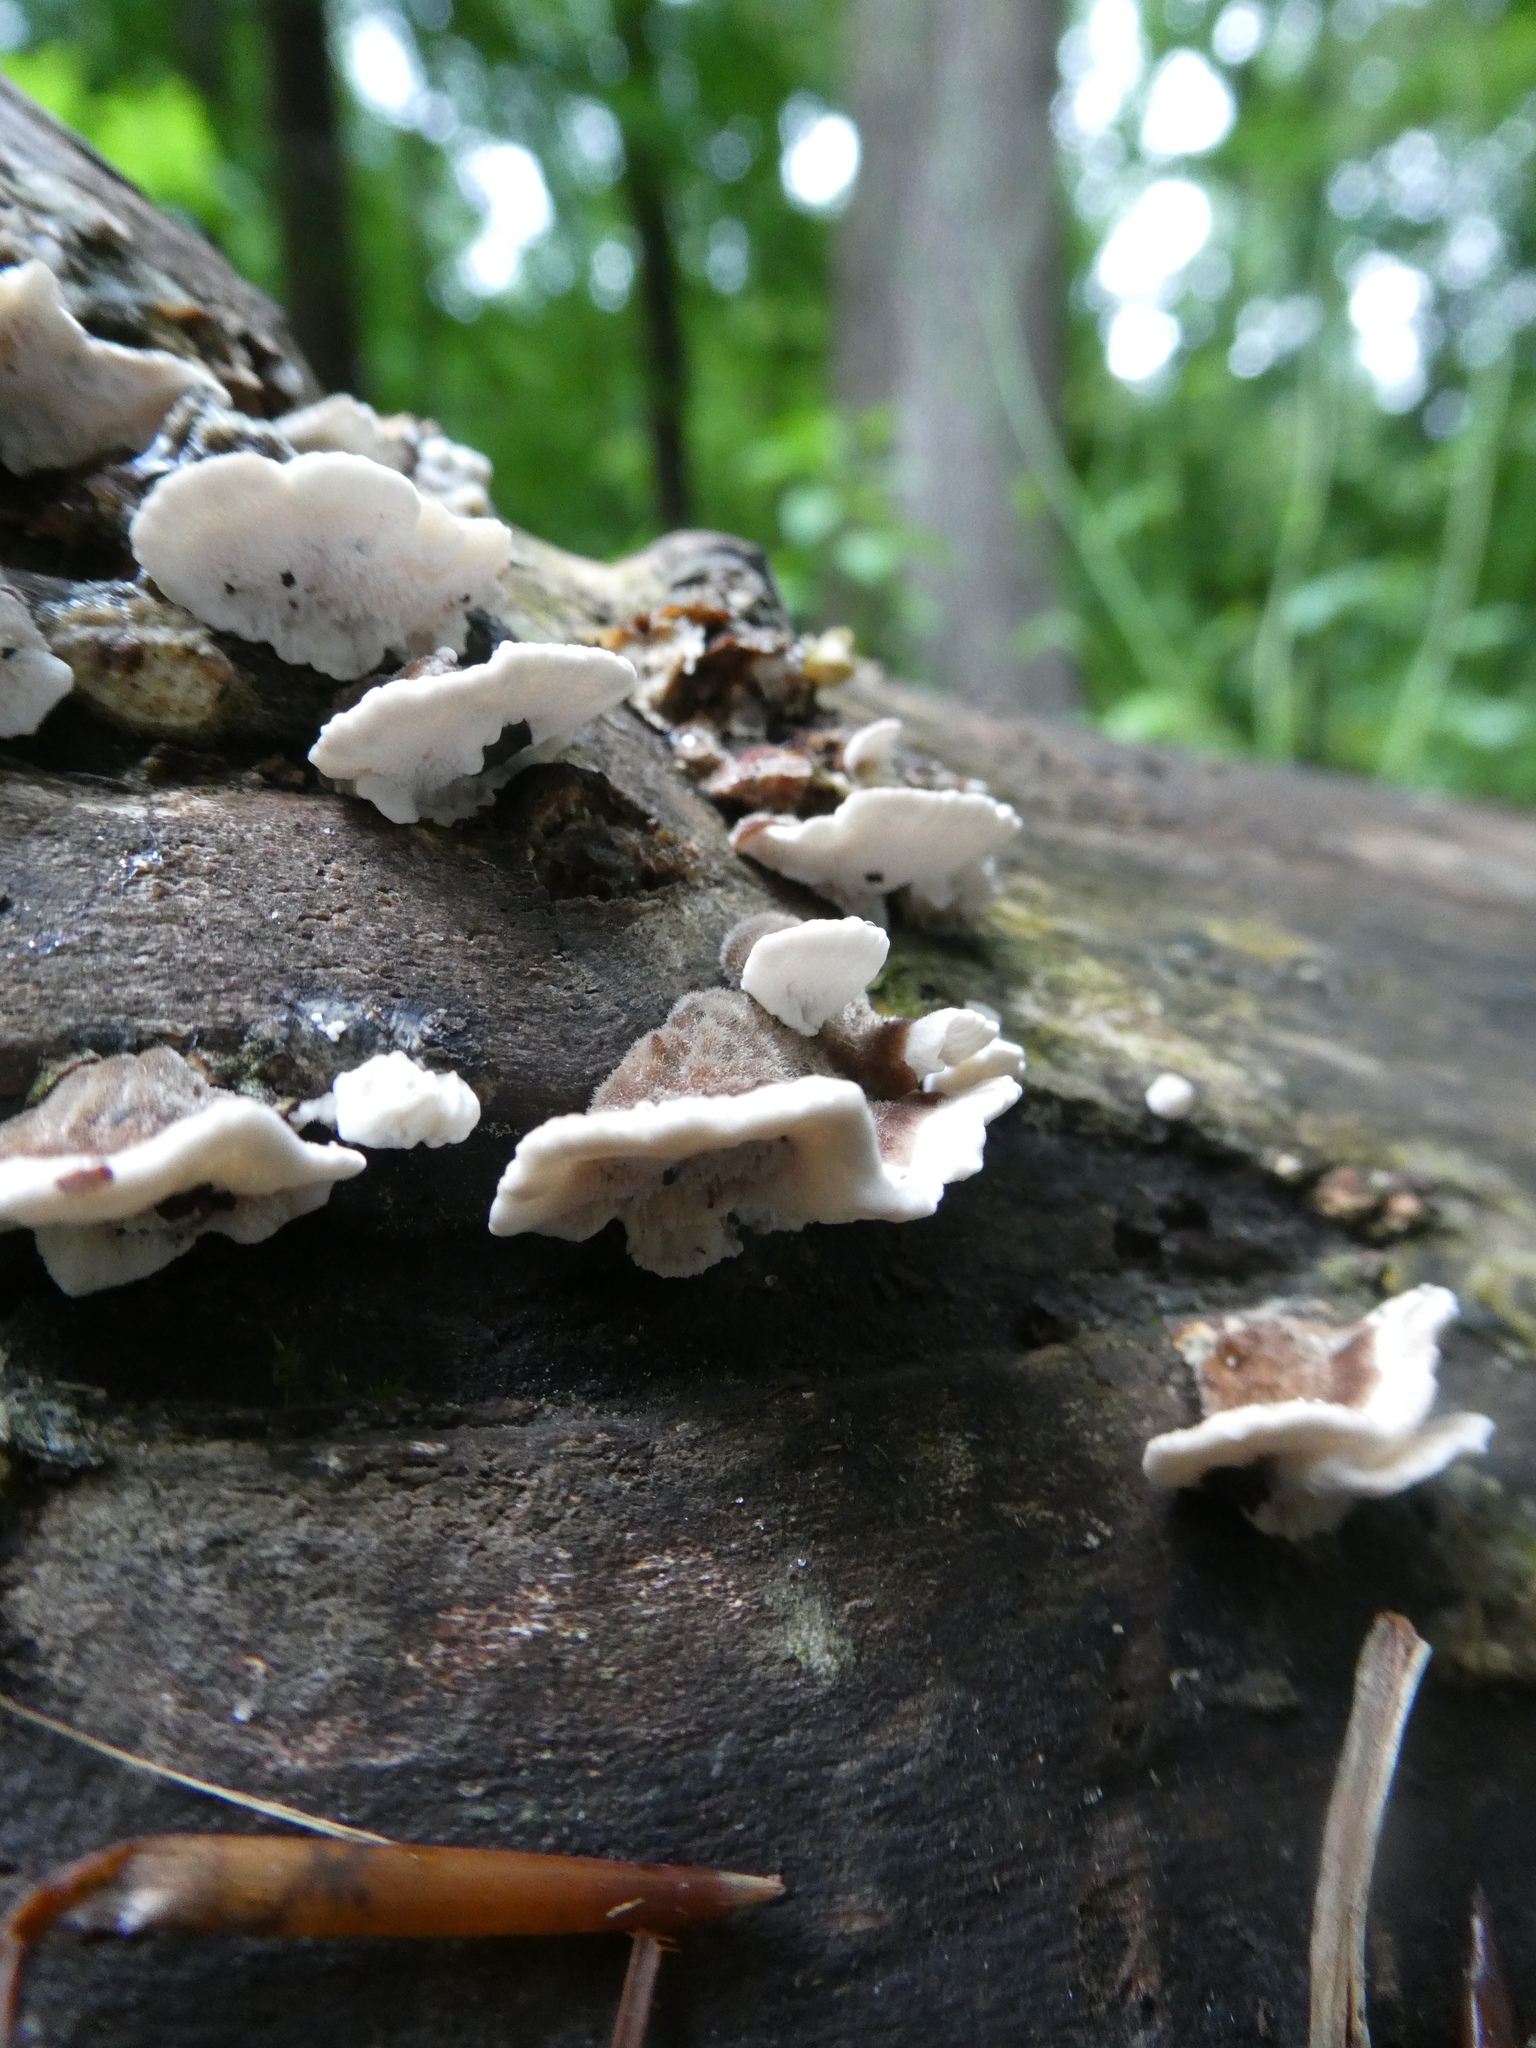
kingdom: Fungi
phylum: Basidiomycota
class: Agaricomycetes
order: Polyporales
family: Polyporaceae
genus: Trametes
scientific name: Trametes versicolor
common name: Turkeytail
